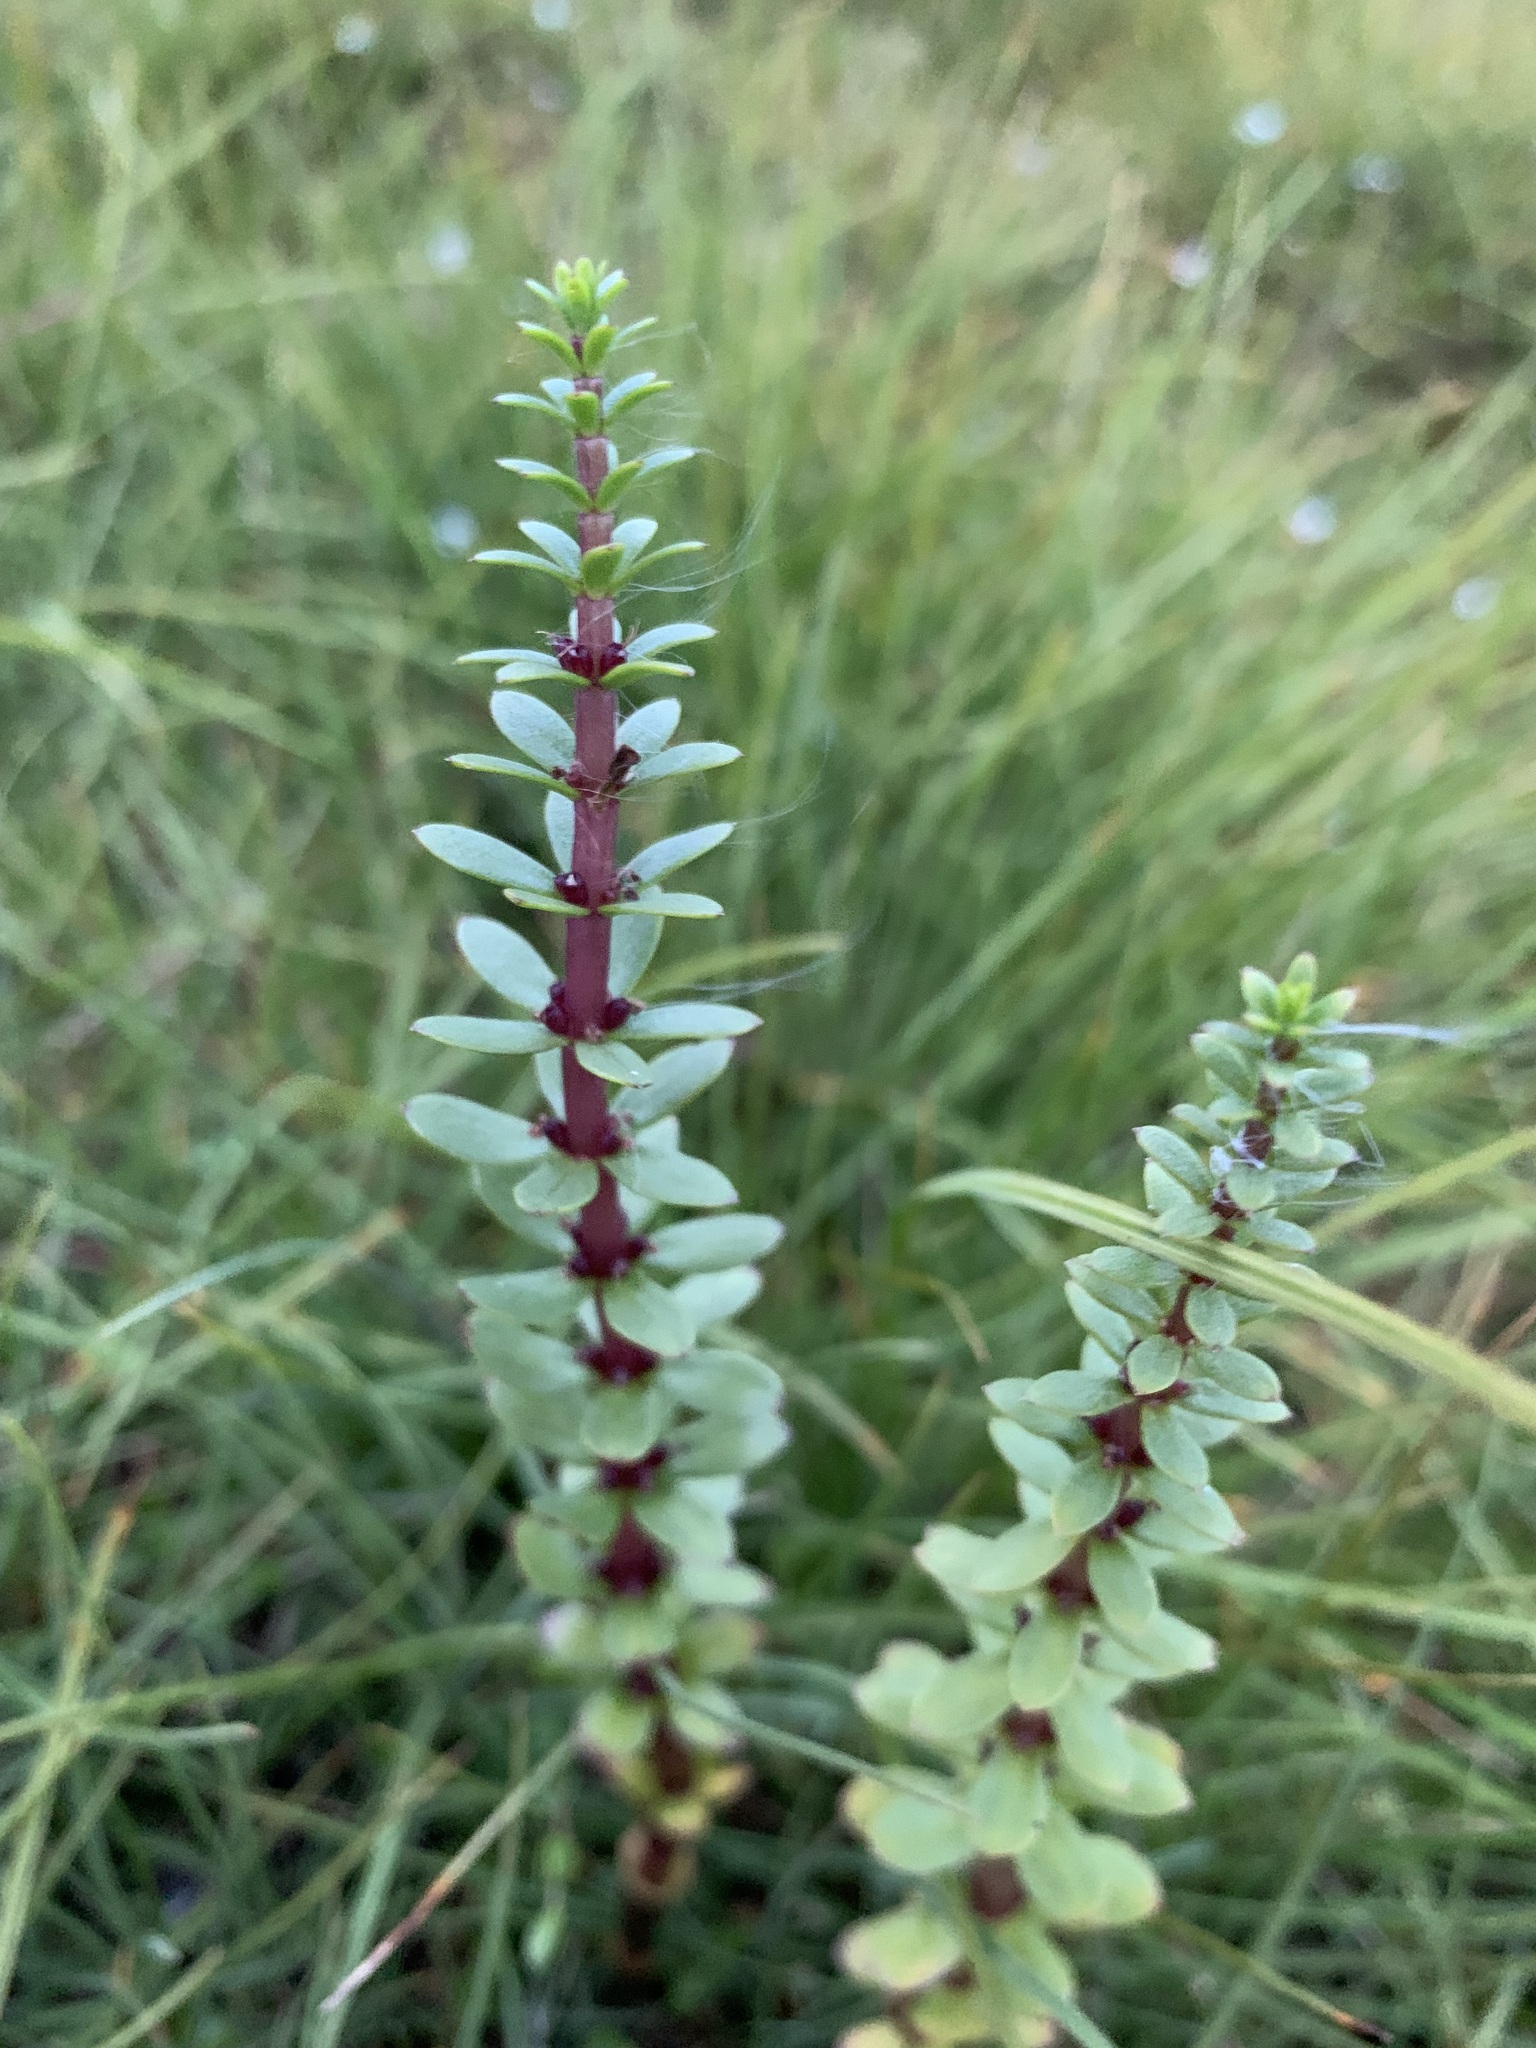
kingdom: Plantae
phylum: Tracheophyta
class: Magnoliopsida
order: Lamiales
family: Plantaginaceae
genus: Hippuris
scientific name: Hippuris tetraphylla
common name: Four-leaved mare's-tail
